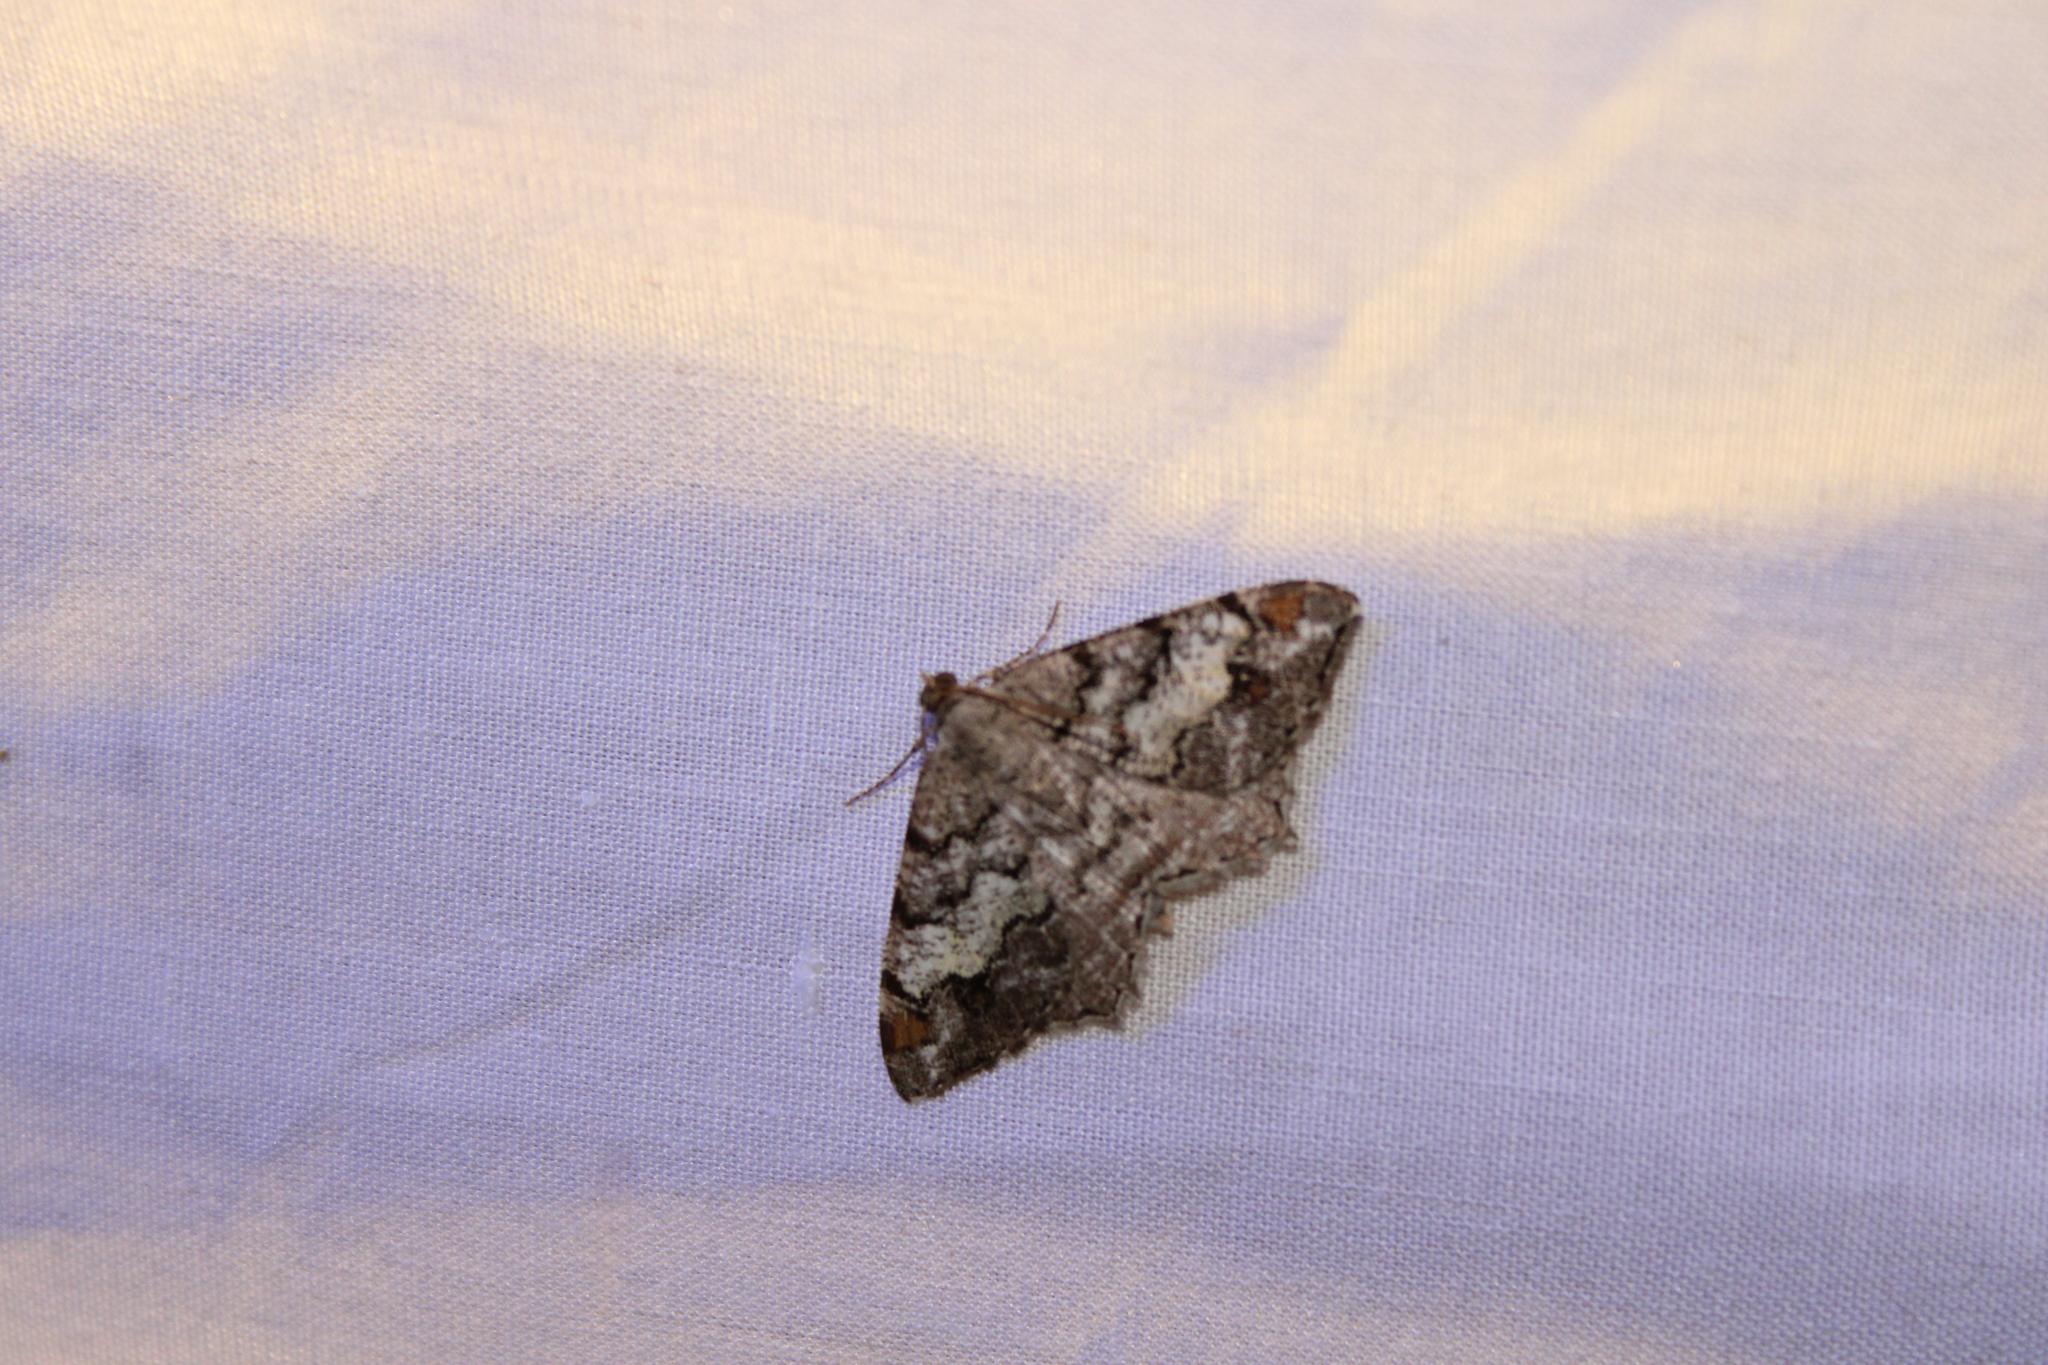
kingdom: Animalia
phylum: Arthropoda
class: Insecta
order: Lepidoptera
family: Geometridae
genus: Macaria
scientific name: Macaria granitata
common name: Granite moth
